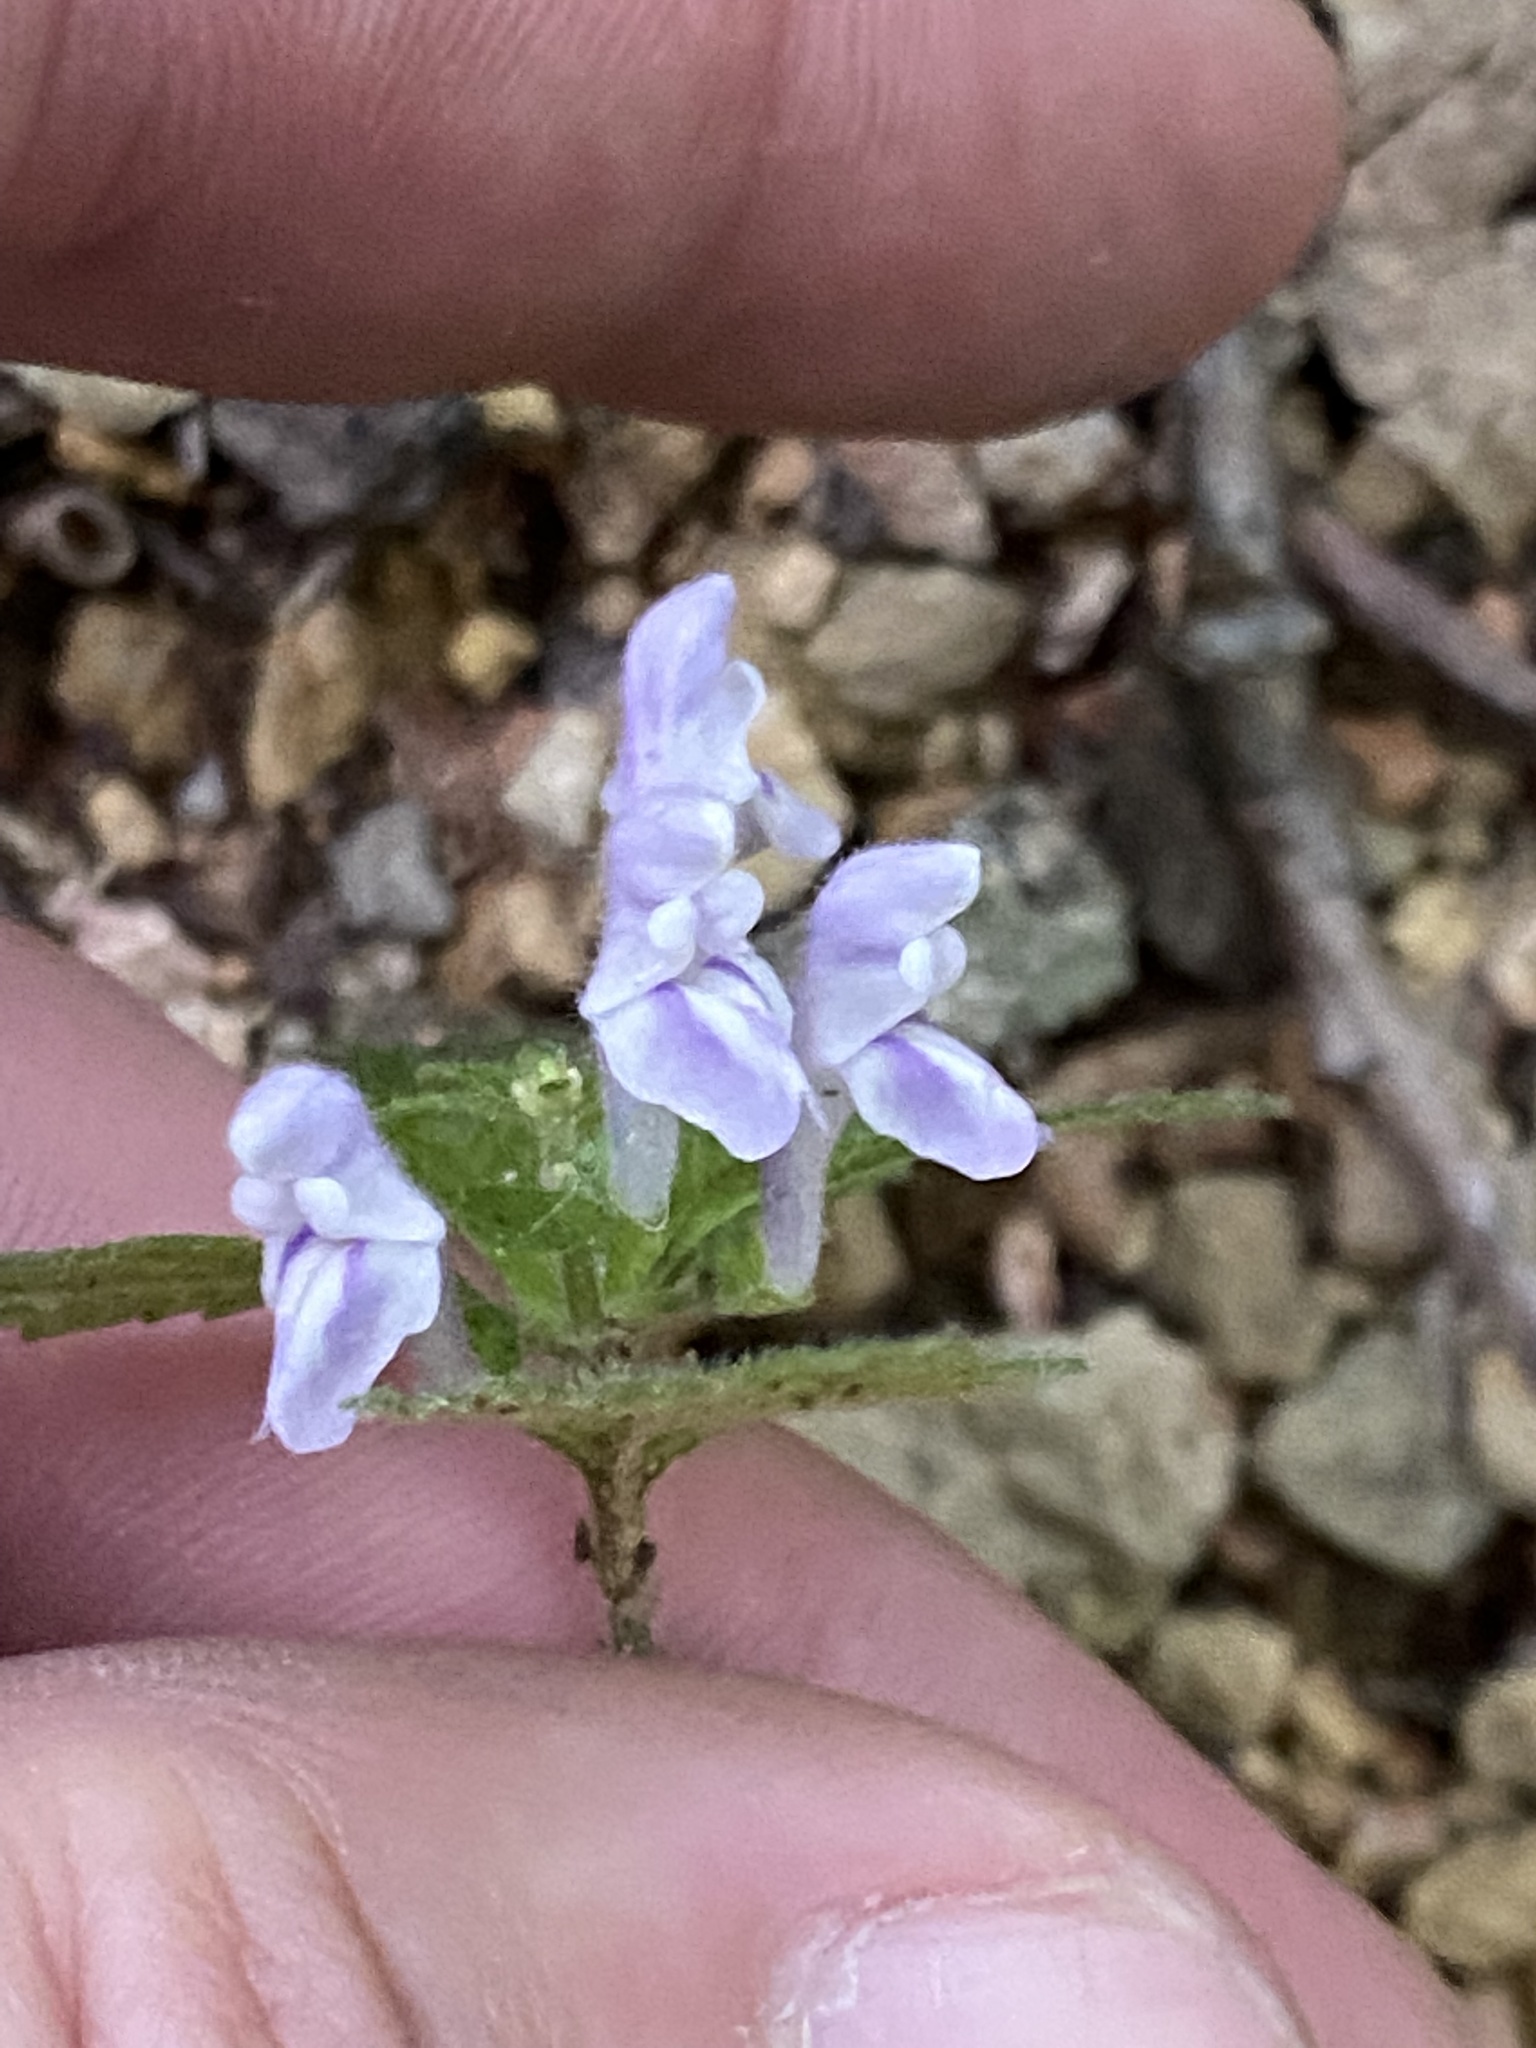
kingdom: Plantae
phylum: Tracheophyta
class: Magnoliopsida
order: Lamiales
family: Lamiaceae
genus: Scutellaria
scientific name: Scutellaria elliptica
